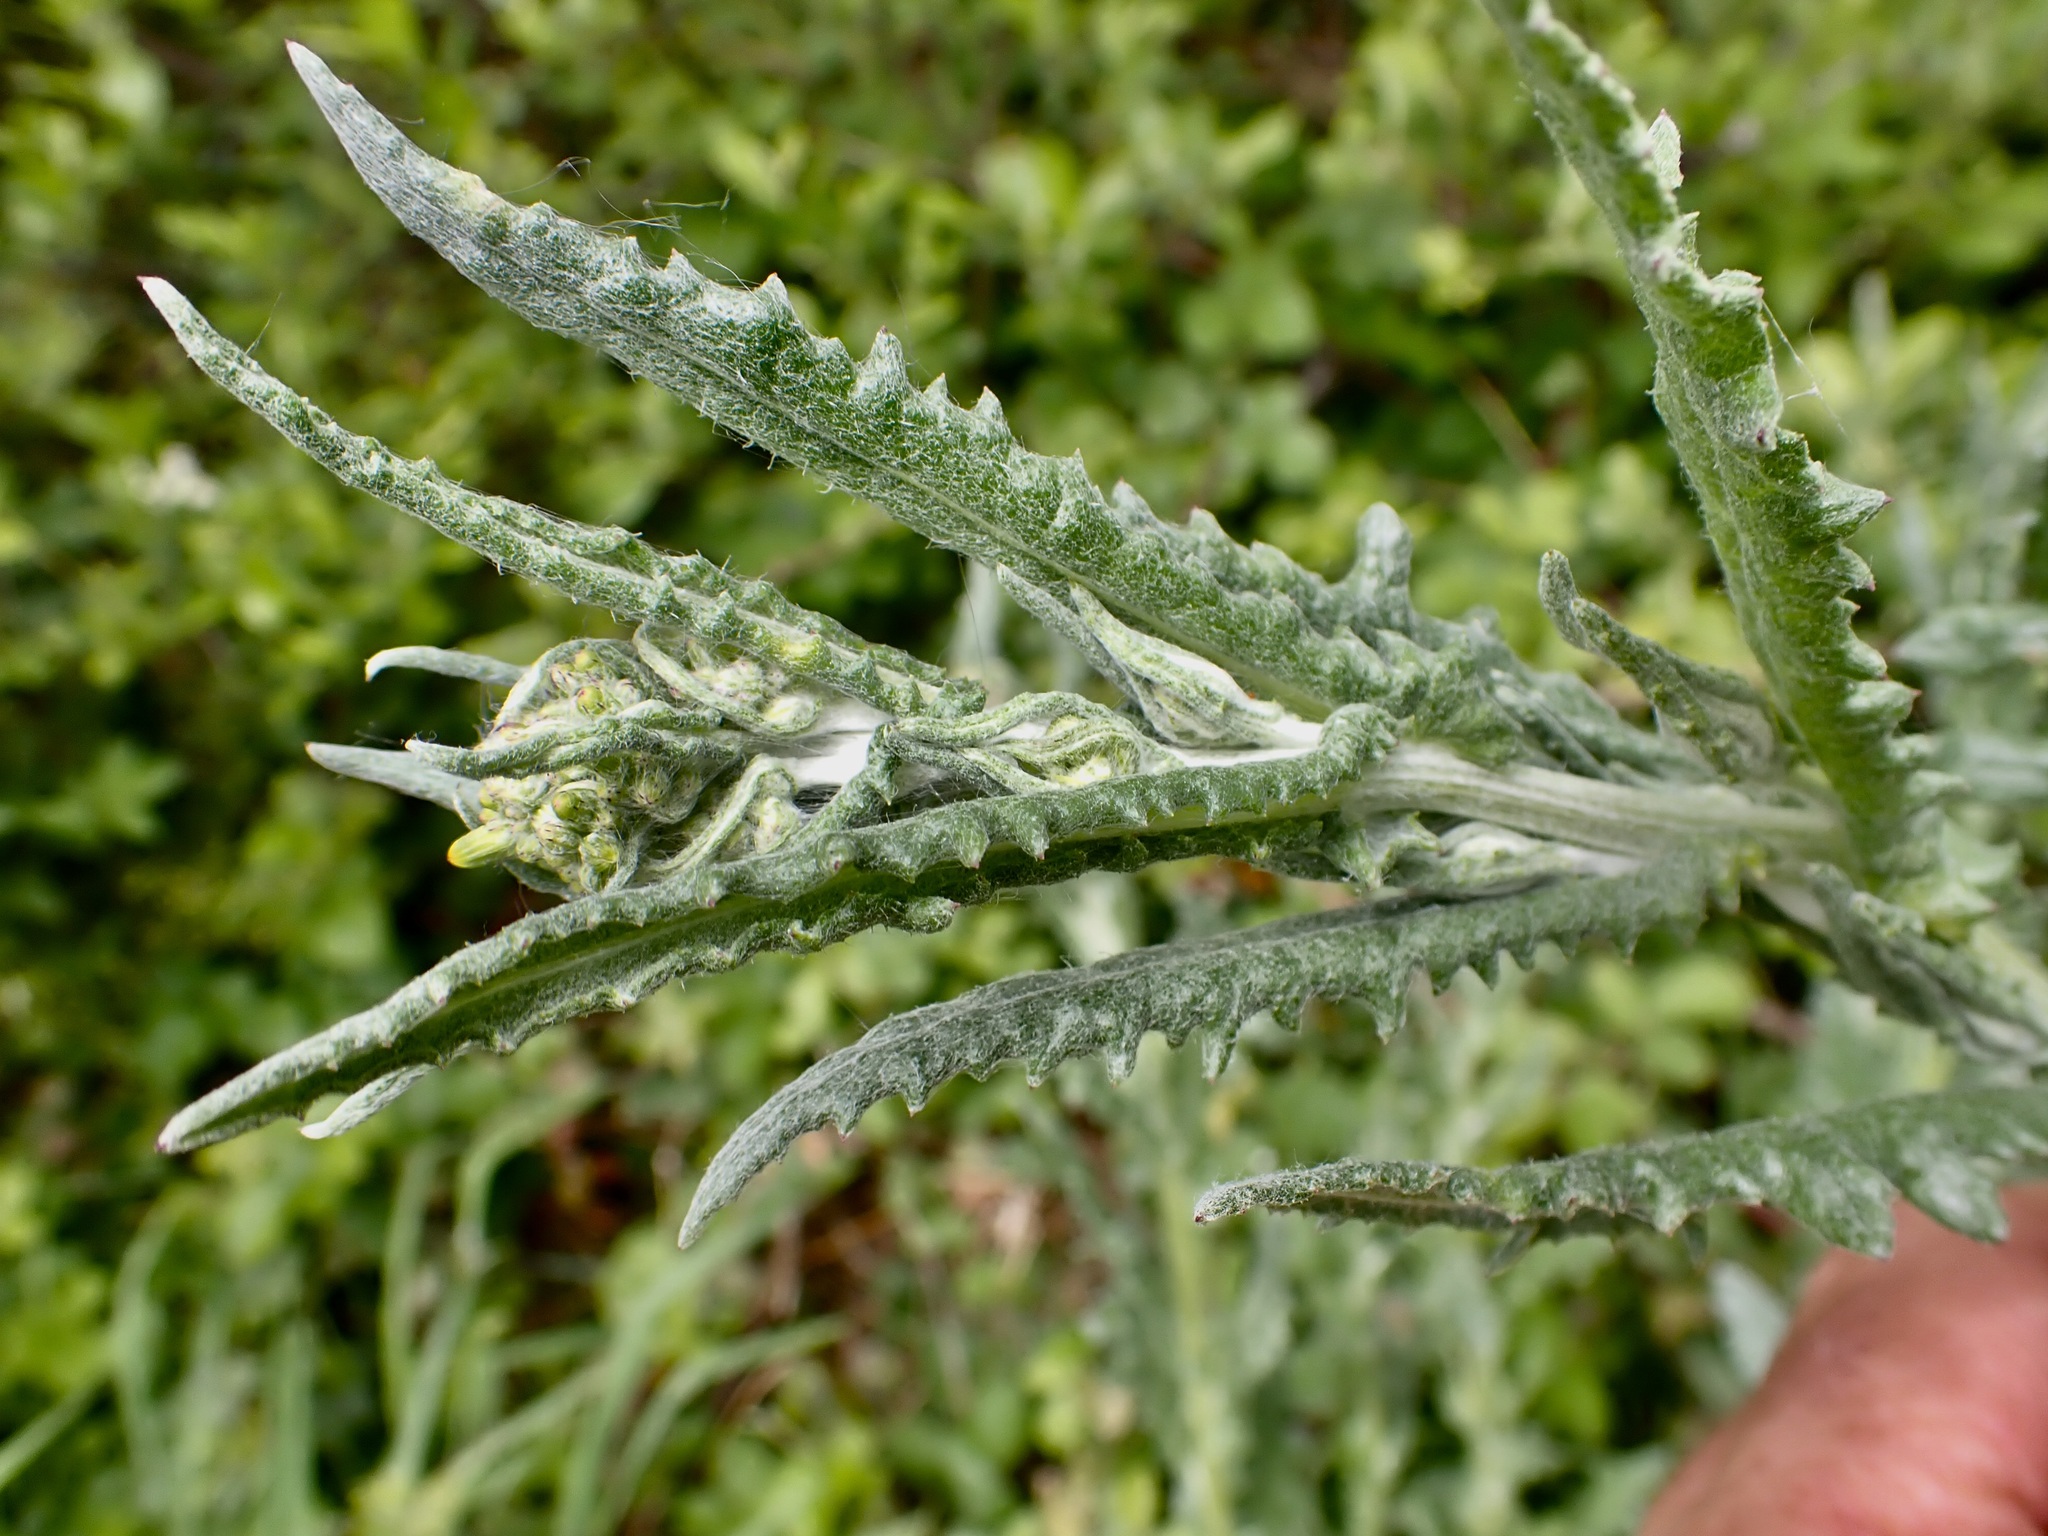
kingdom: Plantae
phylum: Tracheophyta
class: Magnoliopsida
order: Asterales
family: Asteraceae
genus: Senecio
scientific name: Senecio glomeratus
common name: Cutleaf burnweed
